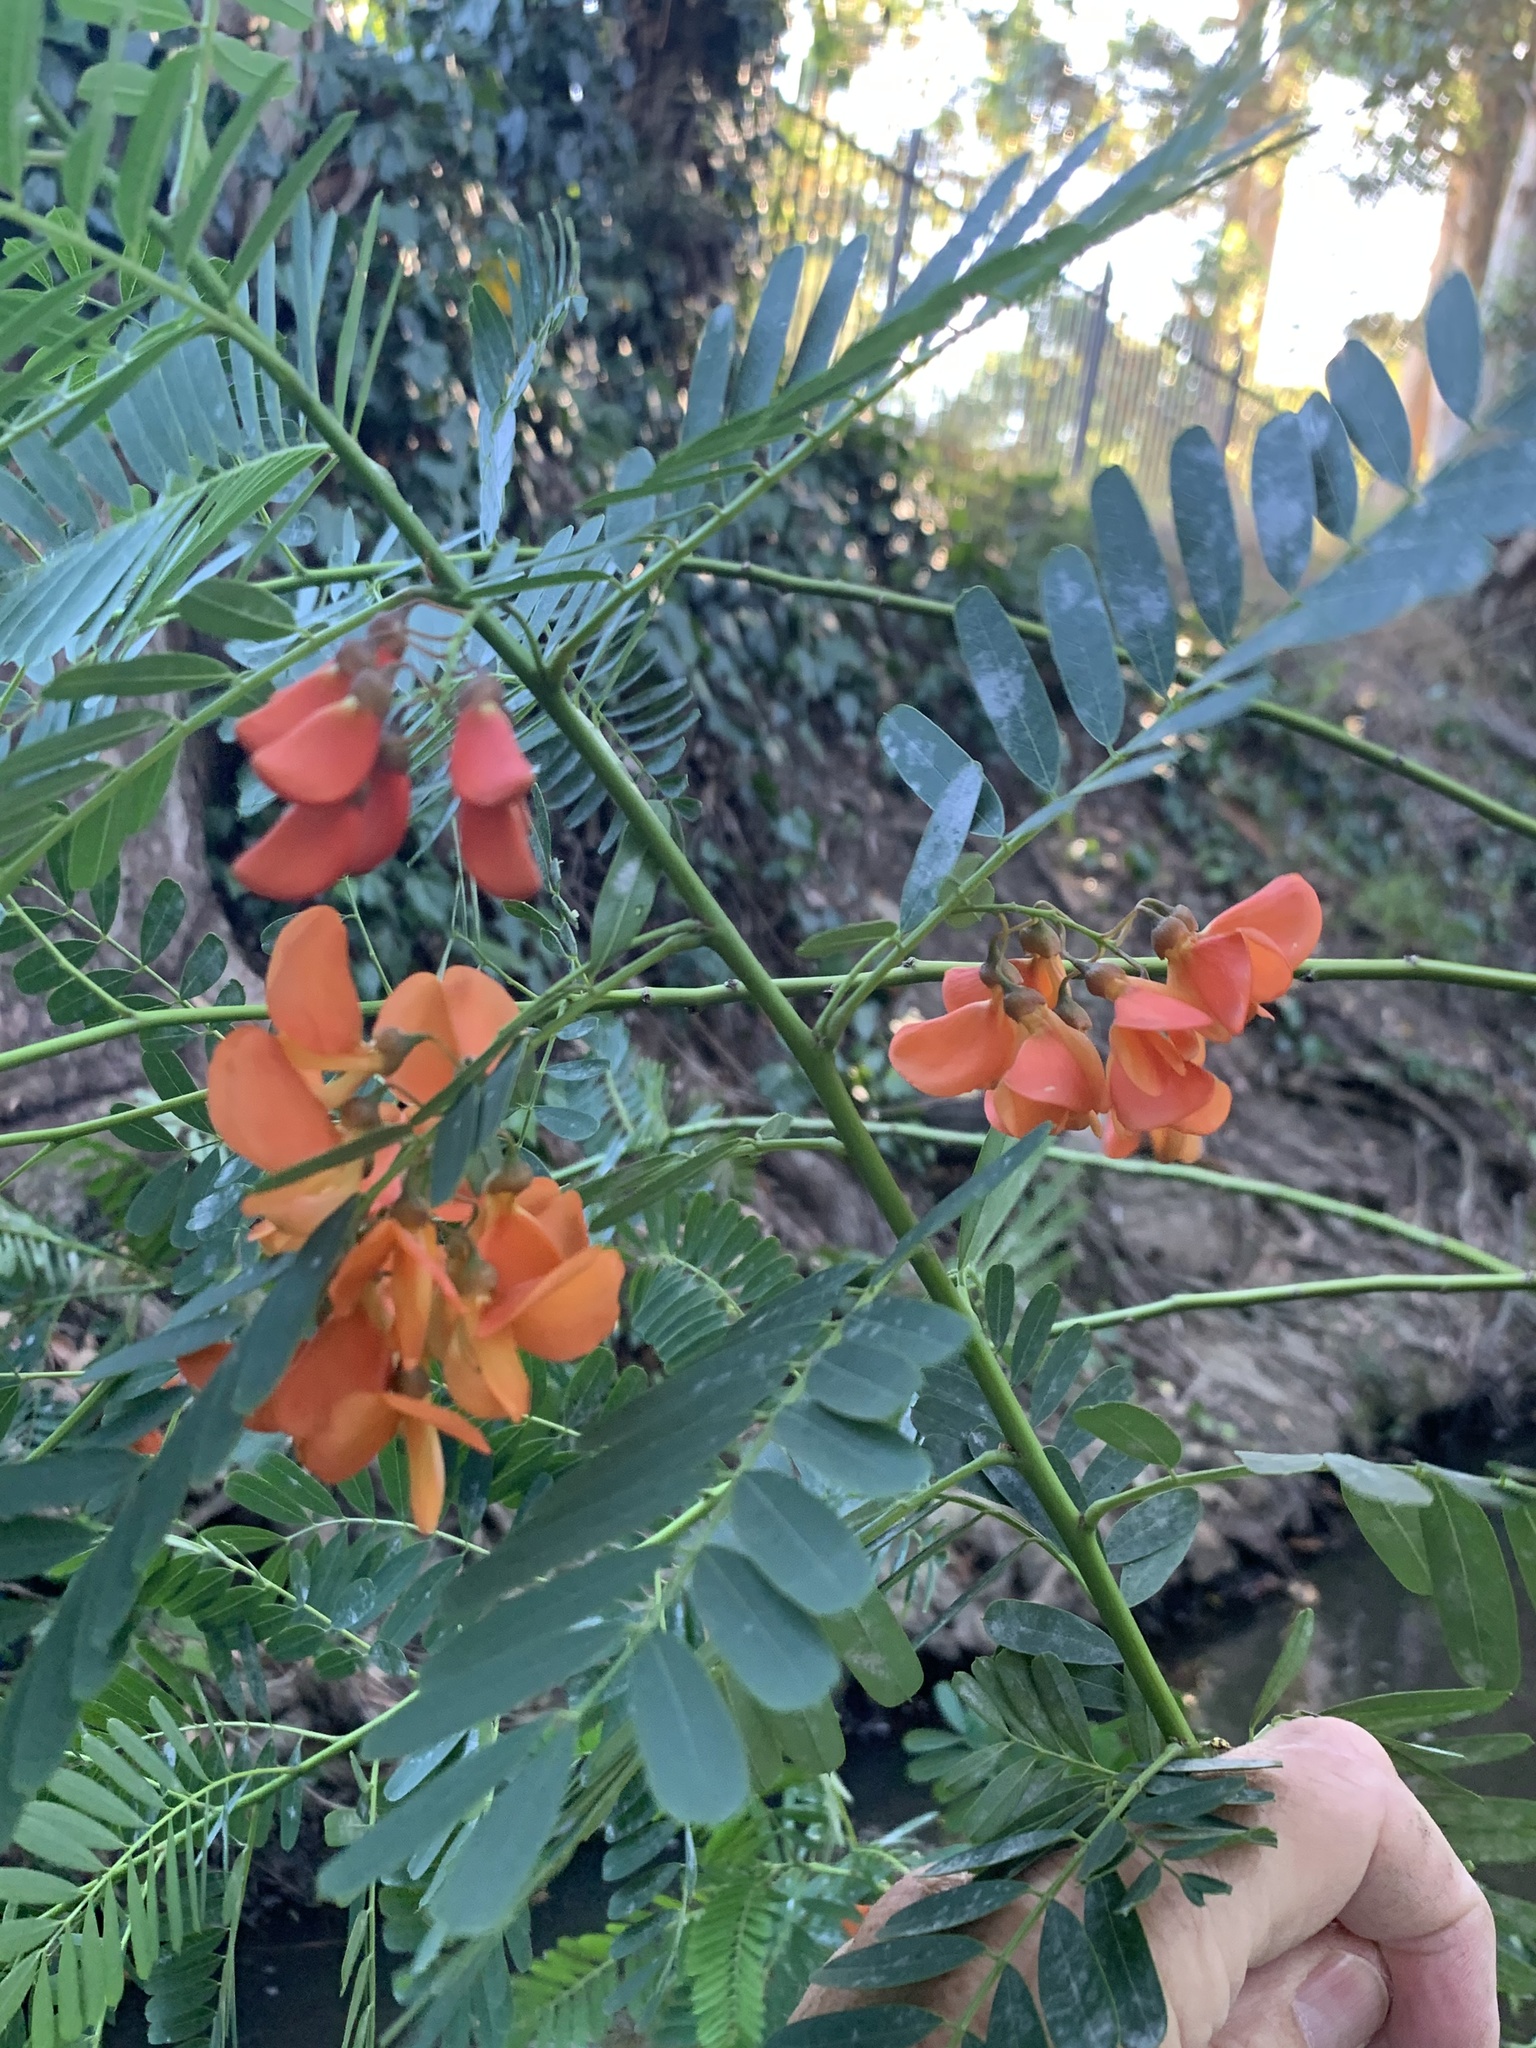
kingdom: Plantae
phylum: Tracheophyta
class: Magnoliopsida
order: Fabales
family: Fabaceae
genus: Sesbania
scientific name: Sesbania punicea
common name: Rattlebox
